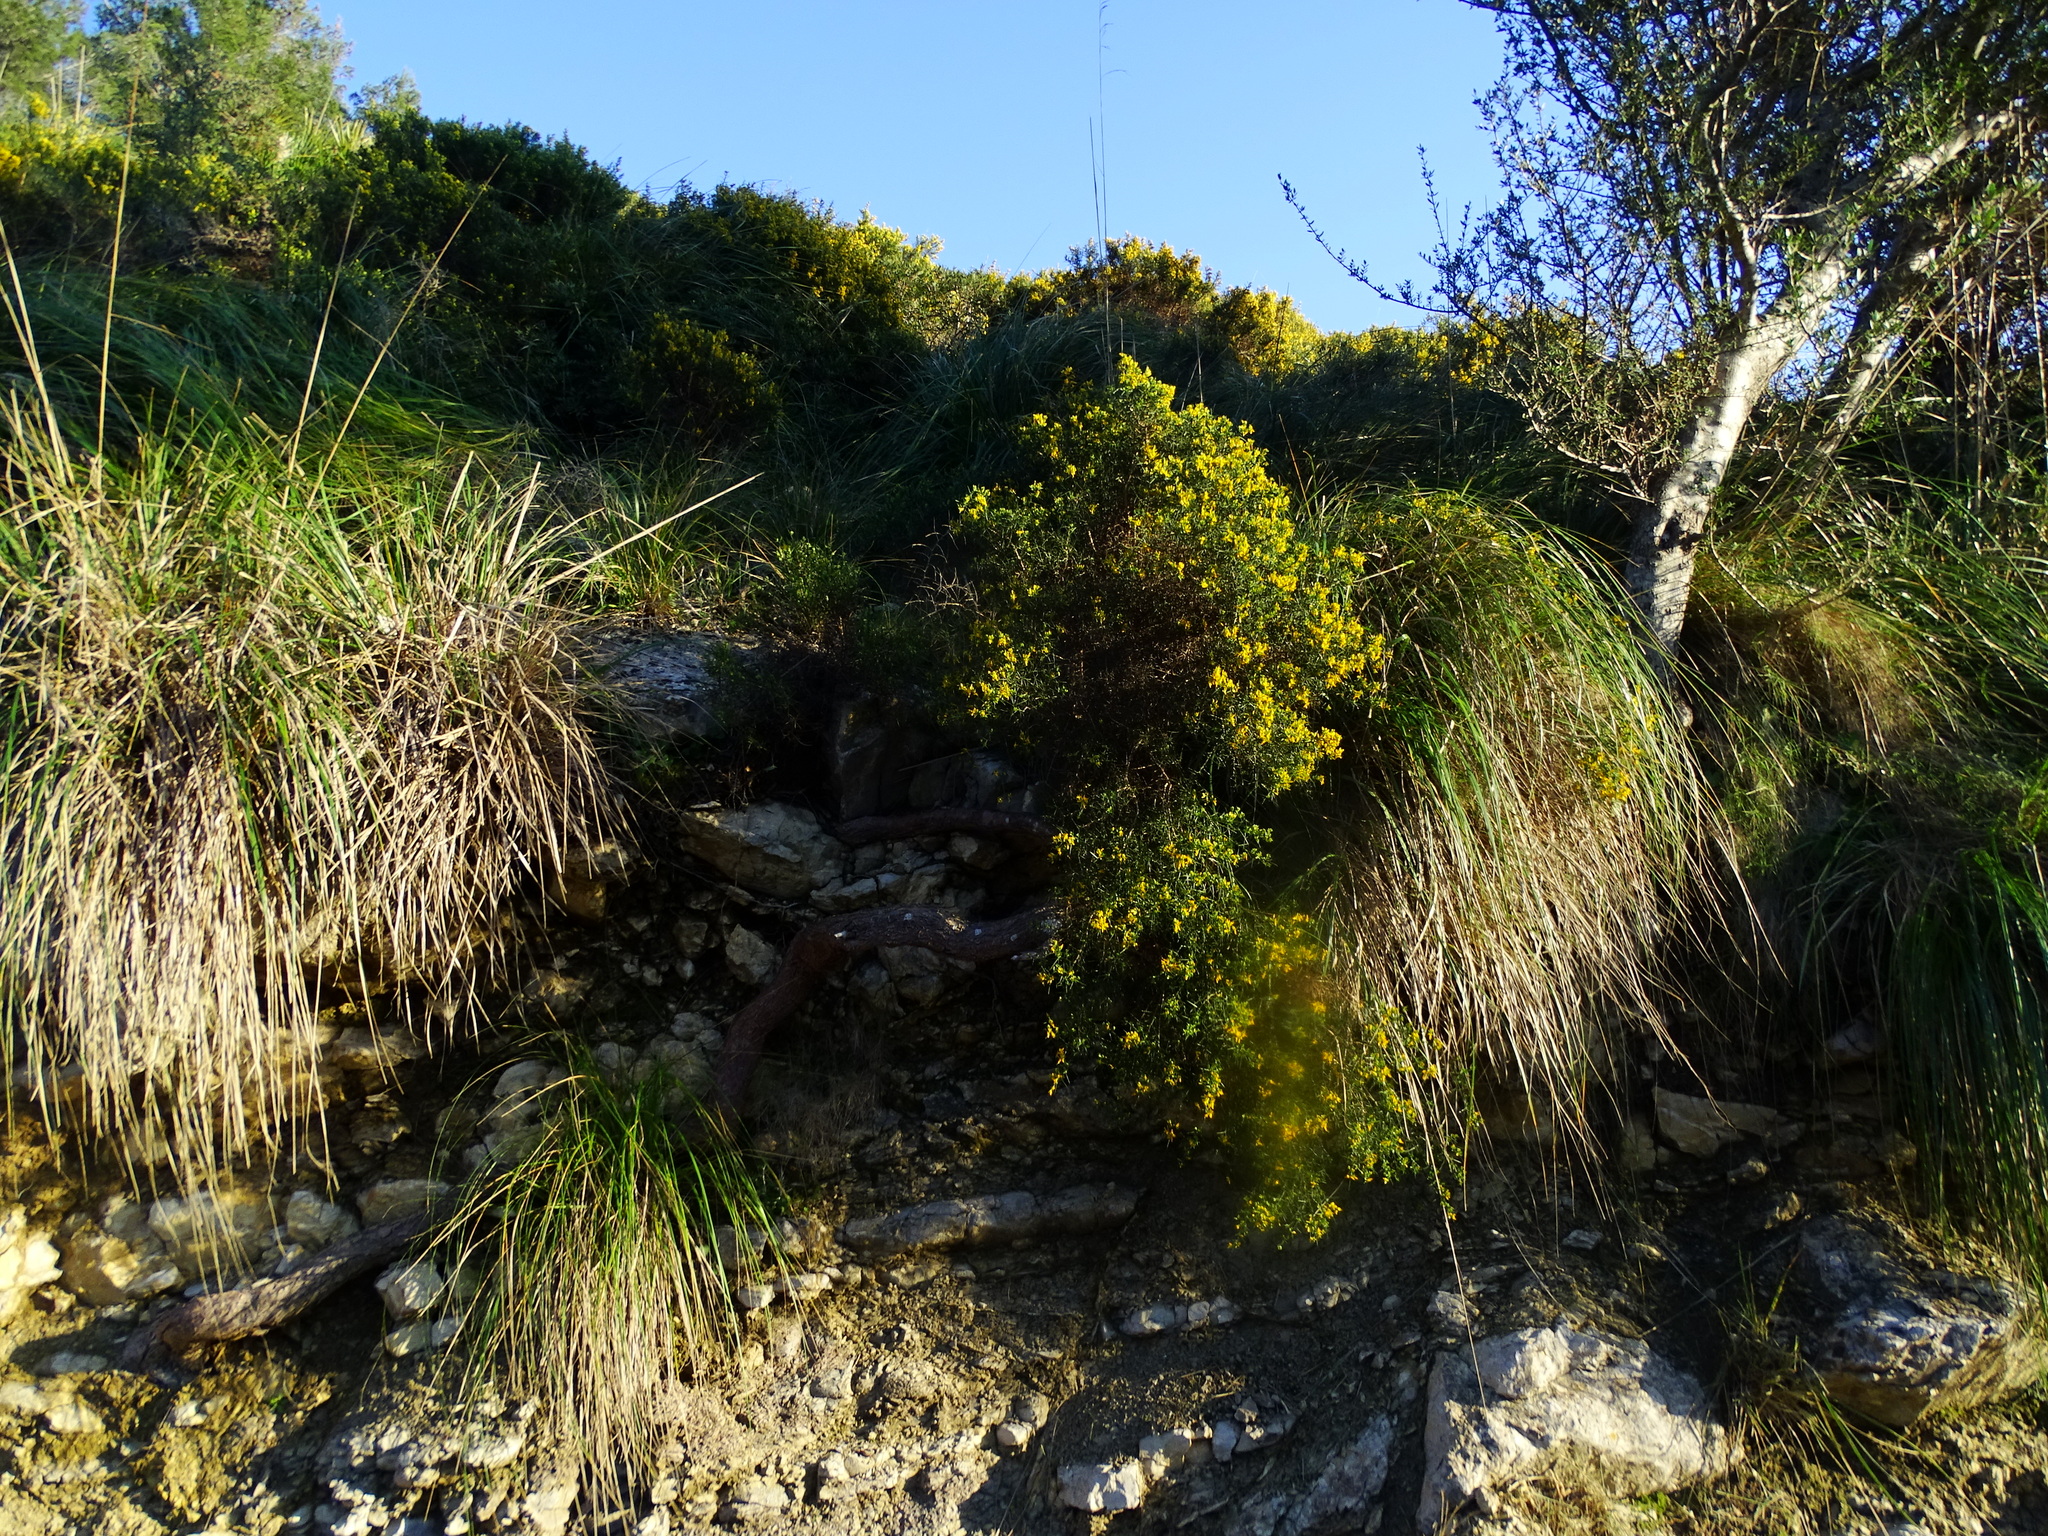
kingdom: Plantae
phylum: Tracheophyta
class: Magnoliopsida
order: Fabales
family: Fabaceae
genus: Calicotome
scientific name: Calicotome spinosa
